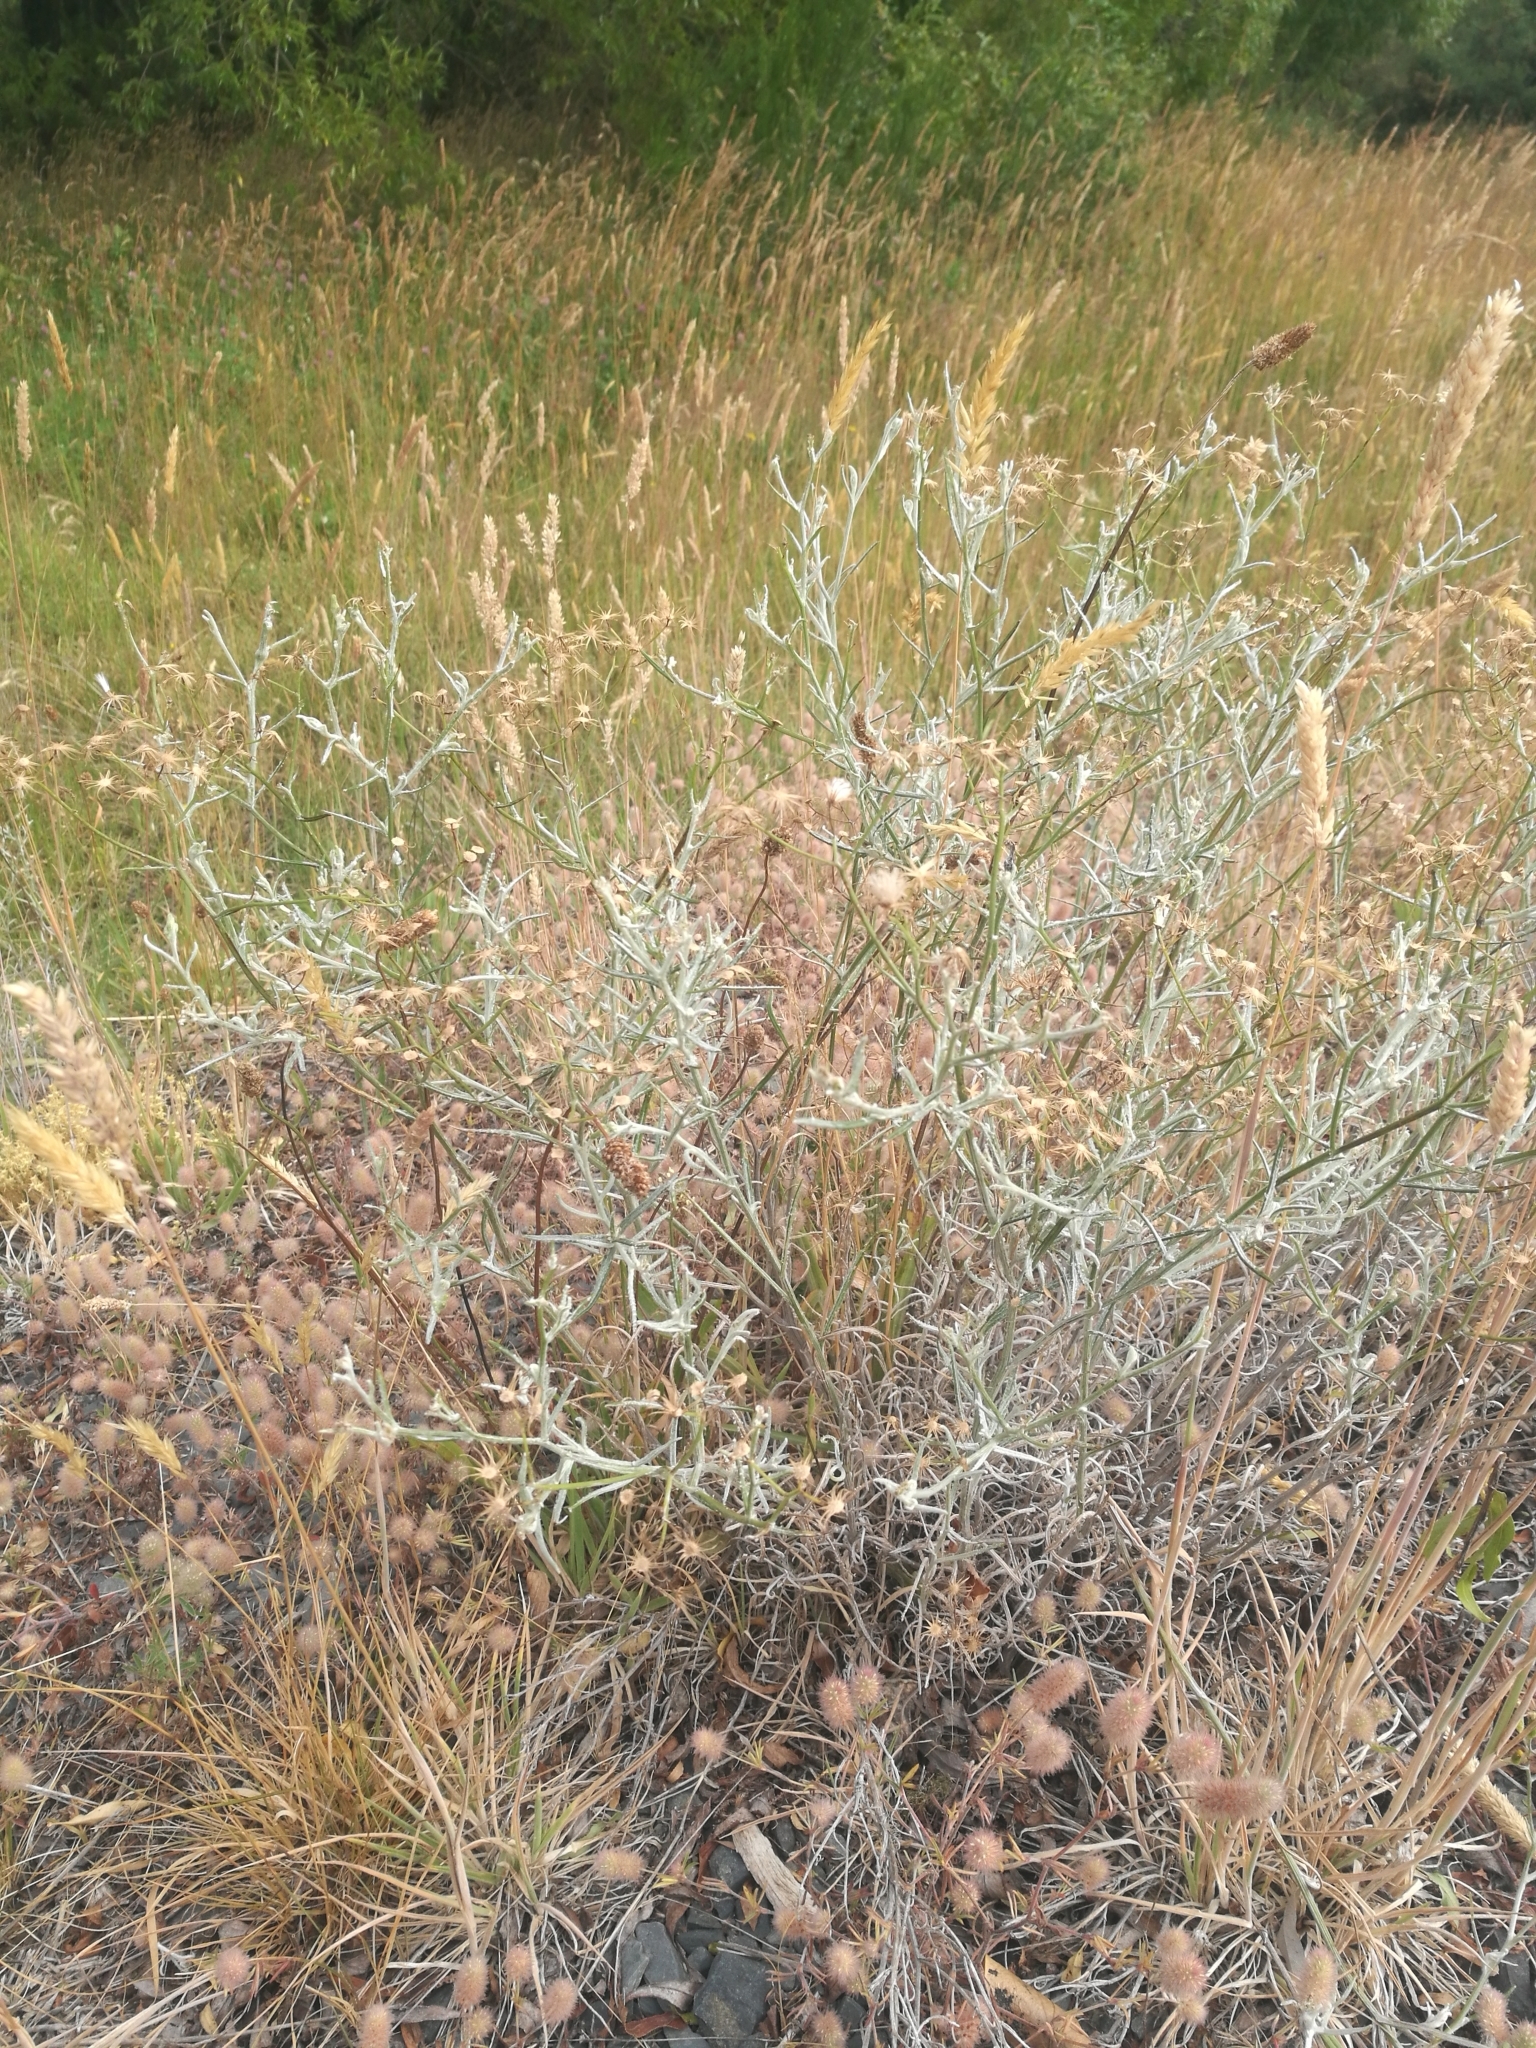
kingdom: Plantae
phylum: Tracheophyta
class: Magnoliopsida
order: Asterales
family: Asteraceae
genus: Senecio
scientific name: Senecio quadridentatus
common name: Cotton fireweed
